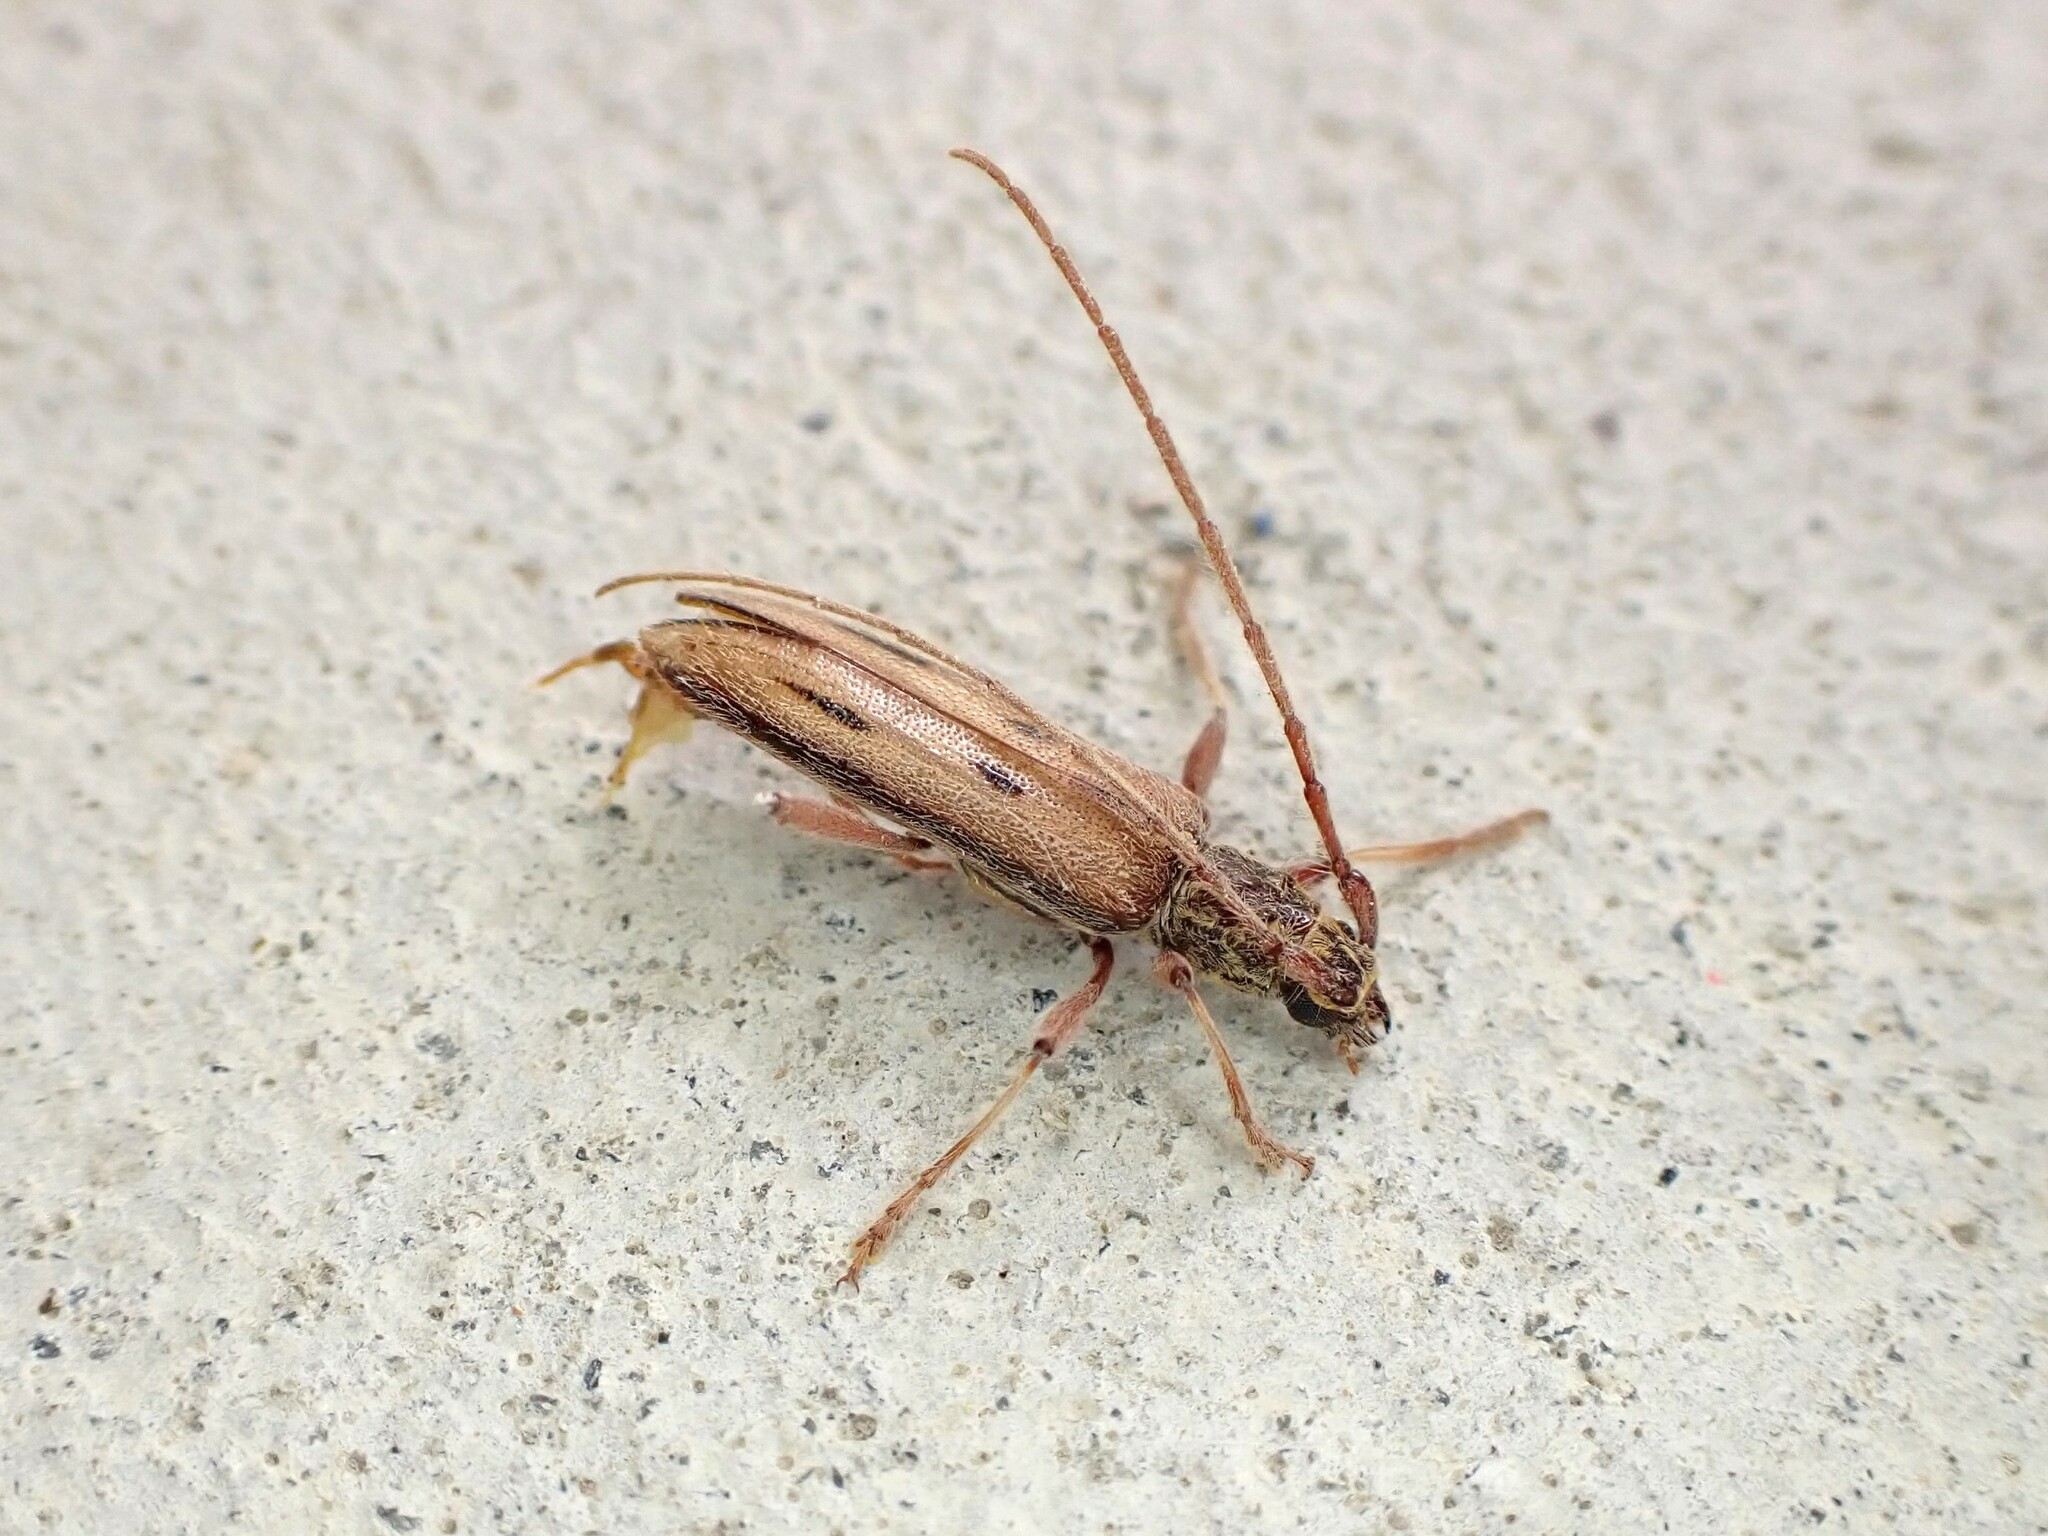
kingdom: Animalia
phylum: Arthropoda
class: Insecta
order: Coleoptera
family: Cerambycidae
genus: Didymocantha
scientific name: Didymocantha sublineata
